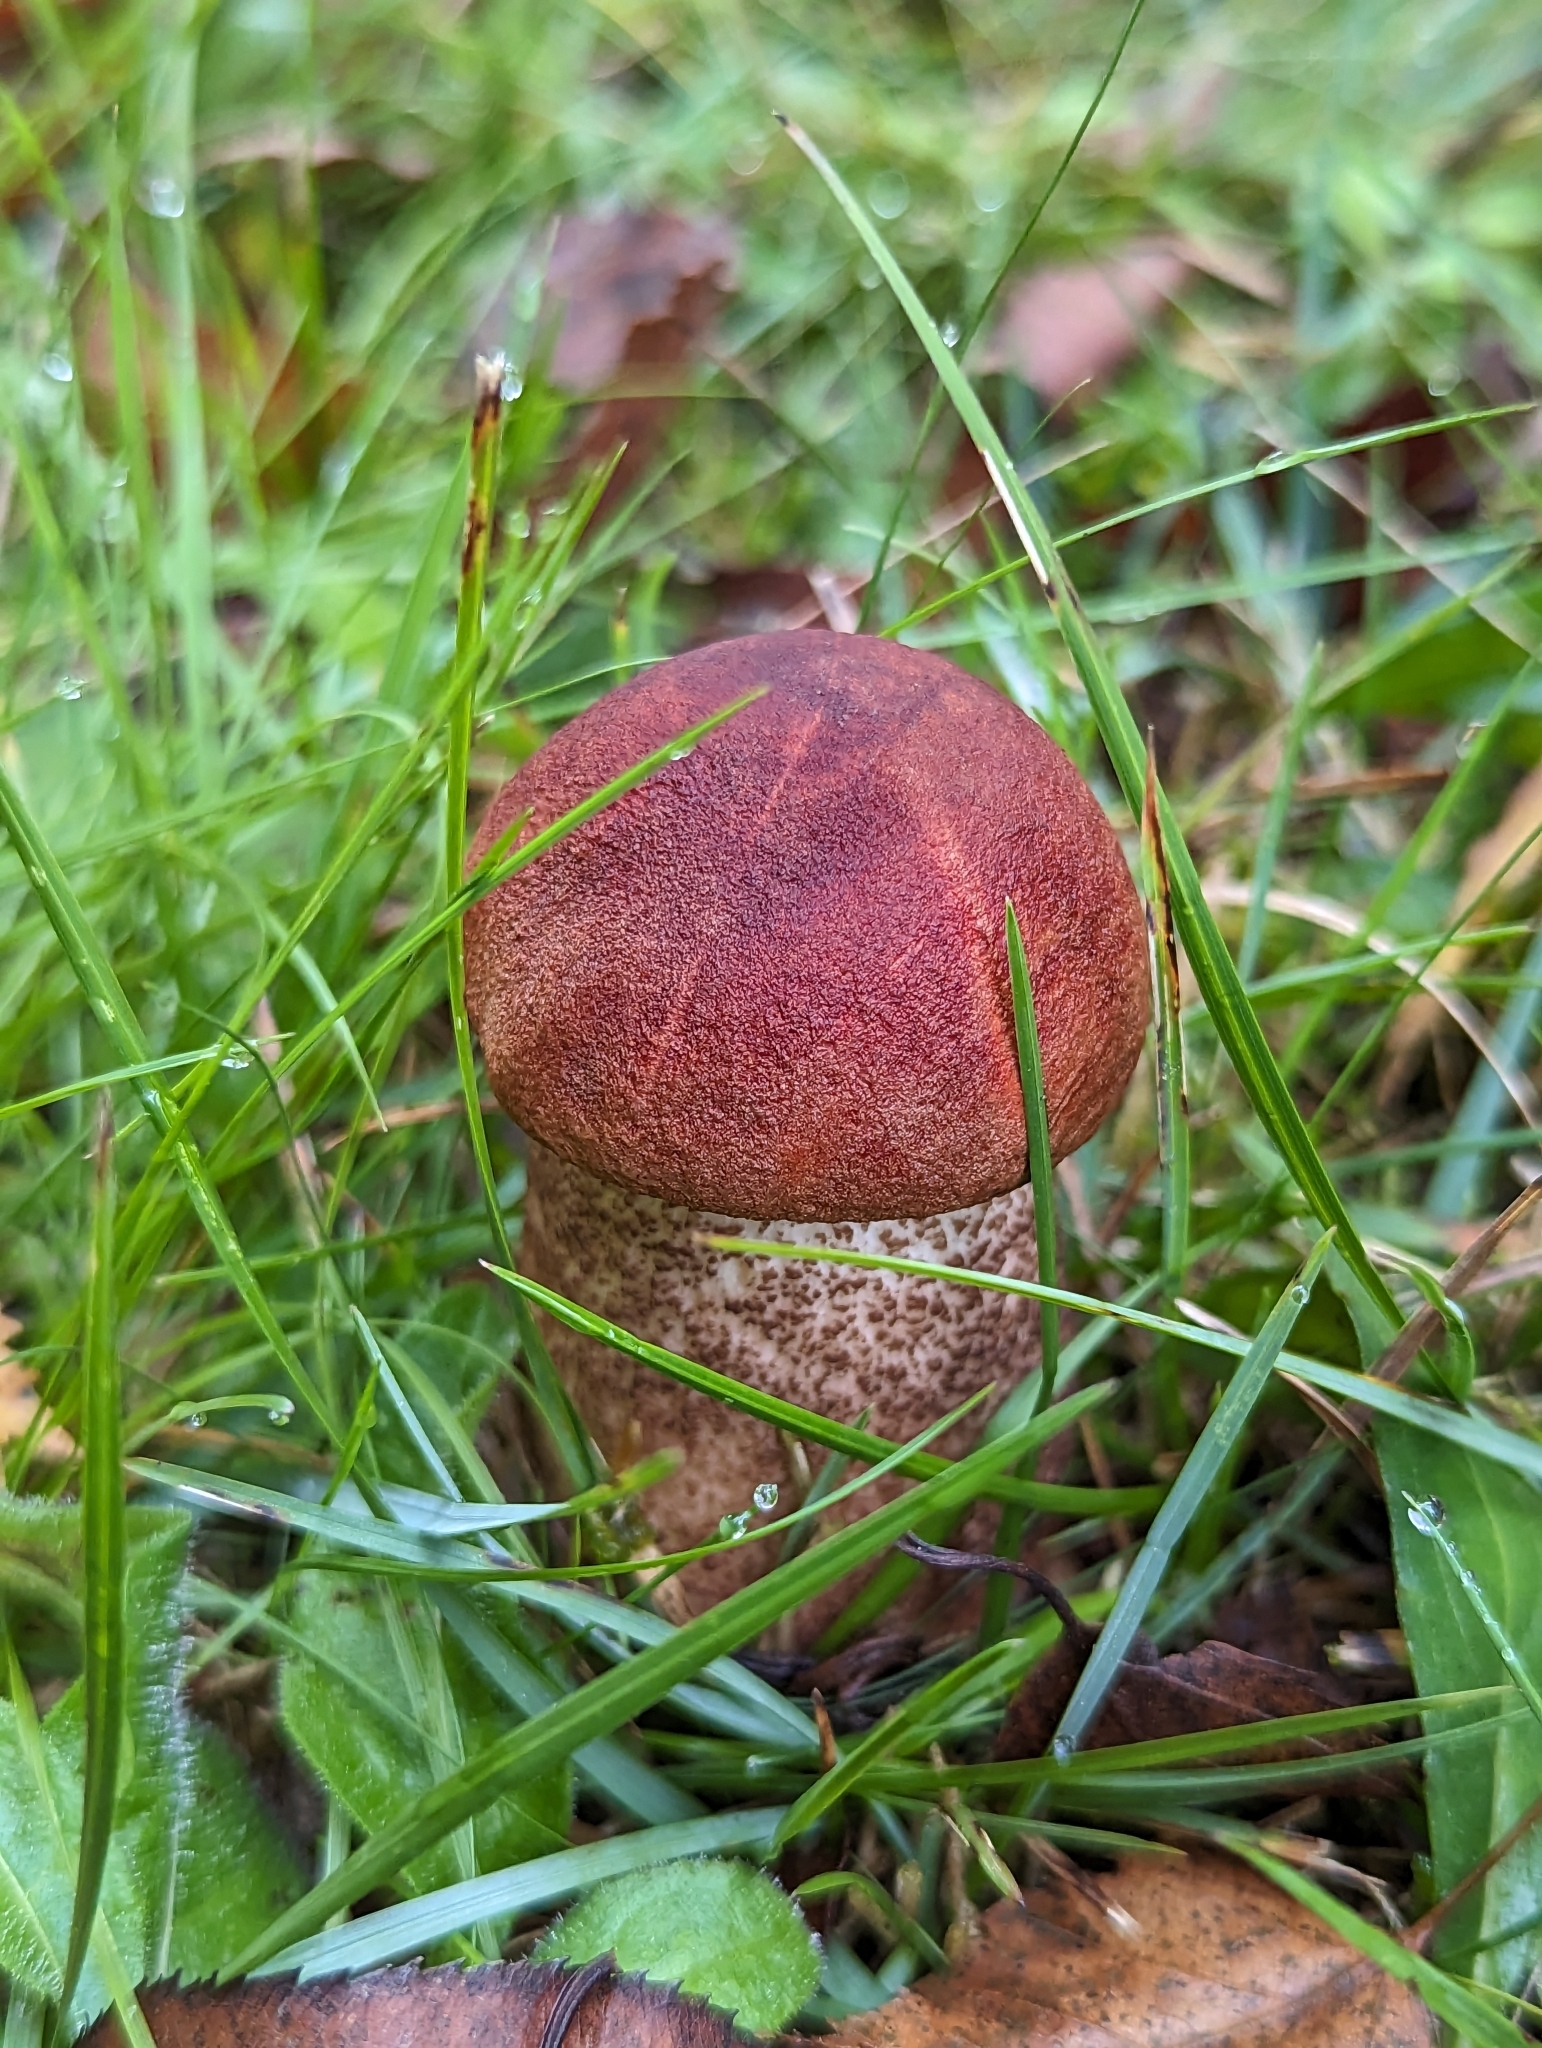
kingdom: Fungi
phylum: Basidiomycota
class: Agaricomycetes
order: Boletales
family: Boletaceae
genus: Leccinum
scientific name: Leccinum aurantiacum
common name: Orange bolete
